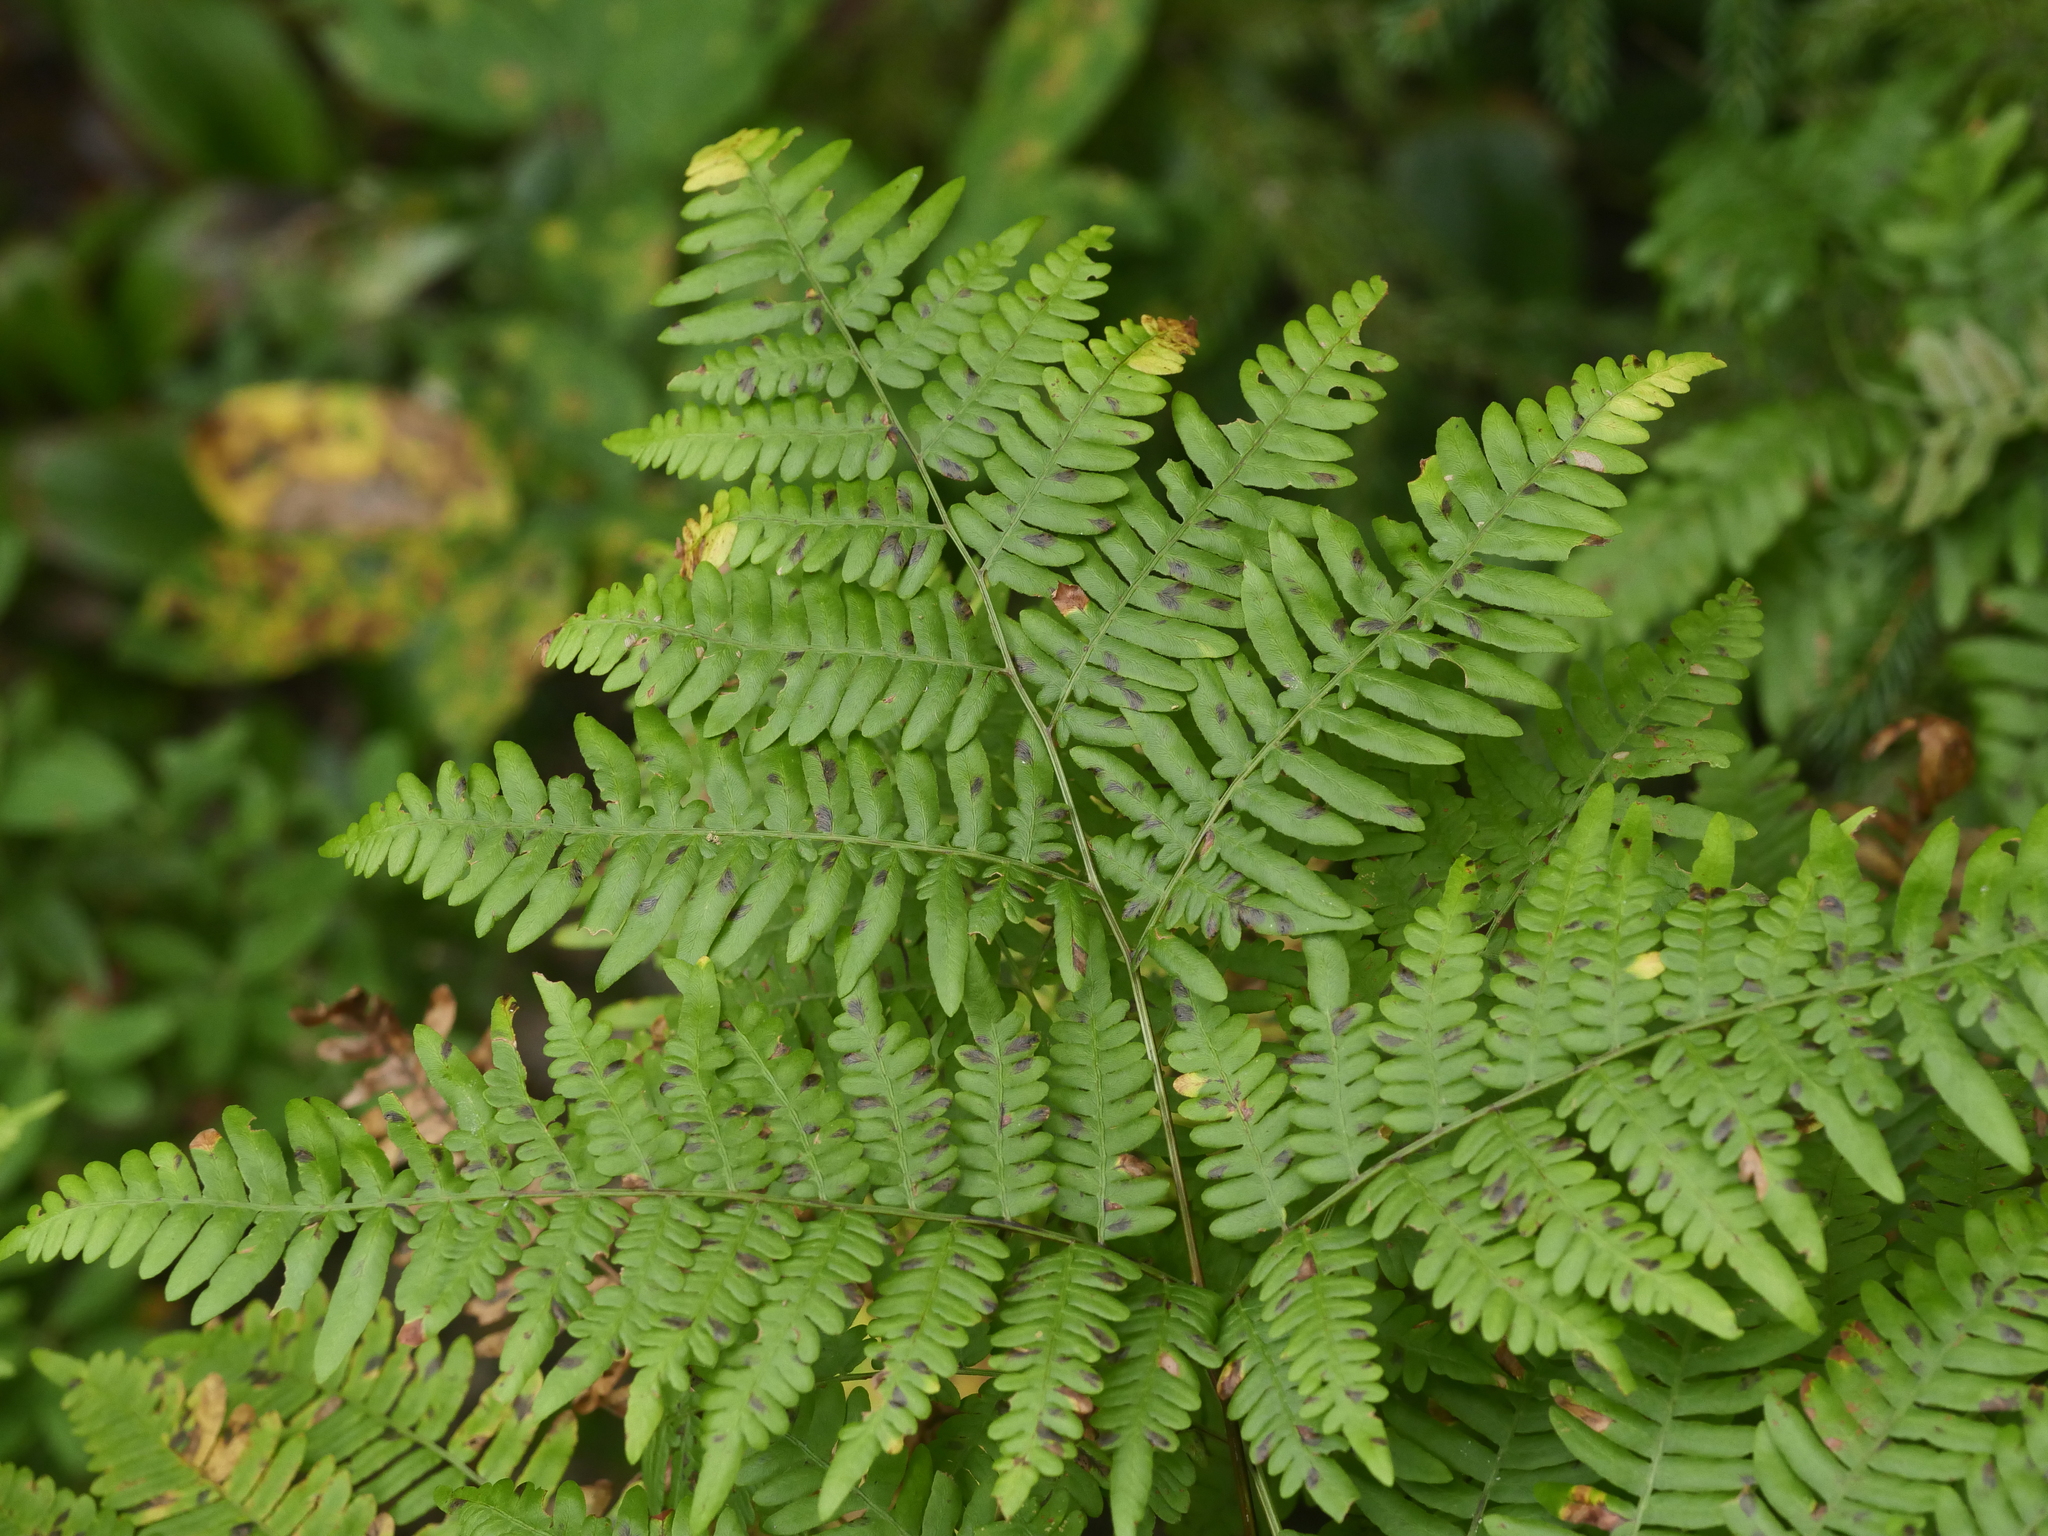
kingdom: Plantae
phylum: Tracheophyta
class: Polypodiopsida
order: Polypodiales
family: Dennstaedtiaceae
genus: Pteridium
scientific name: Pteridium aquilinum
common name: Bracken
